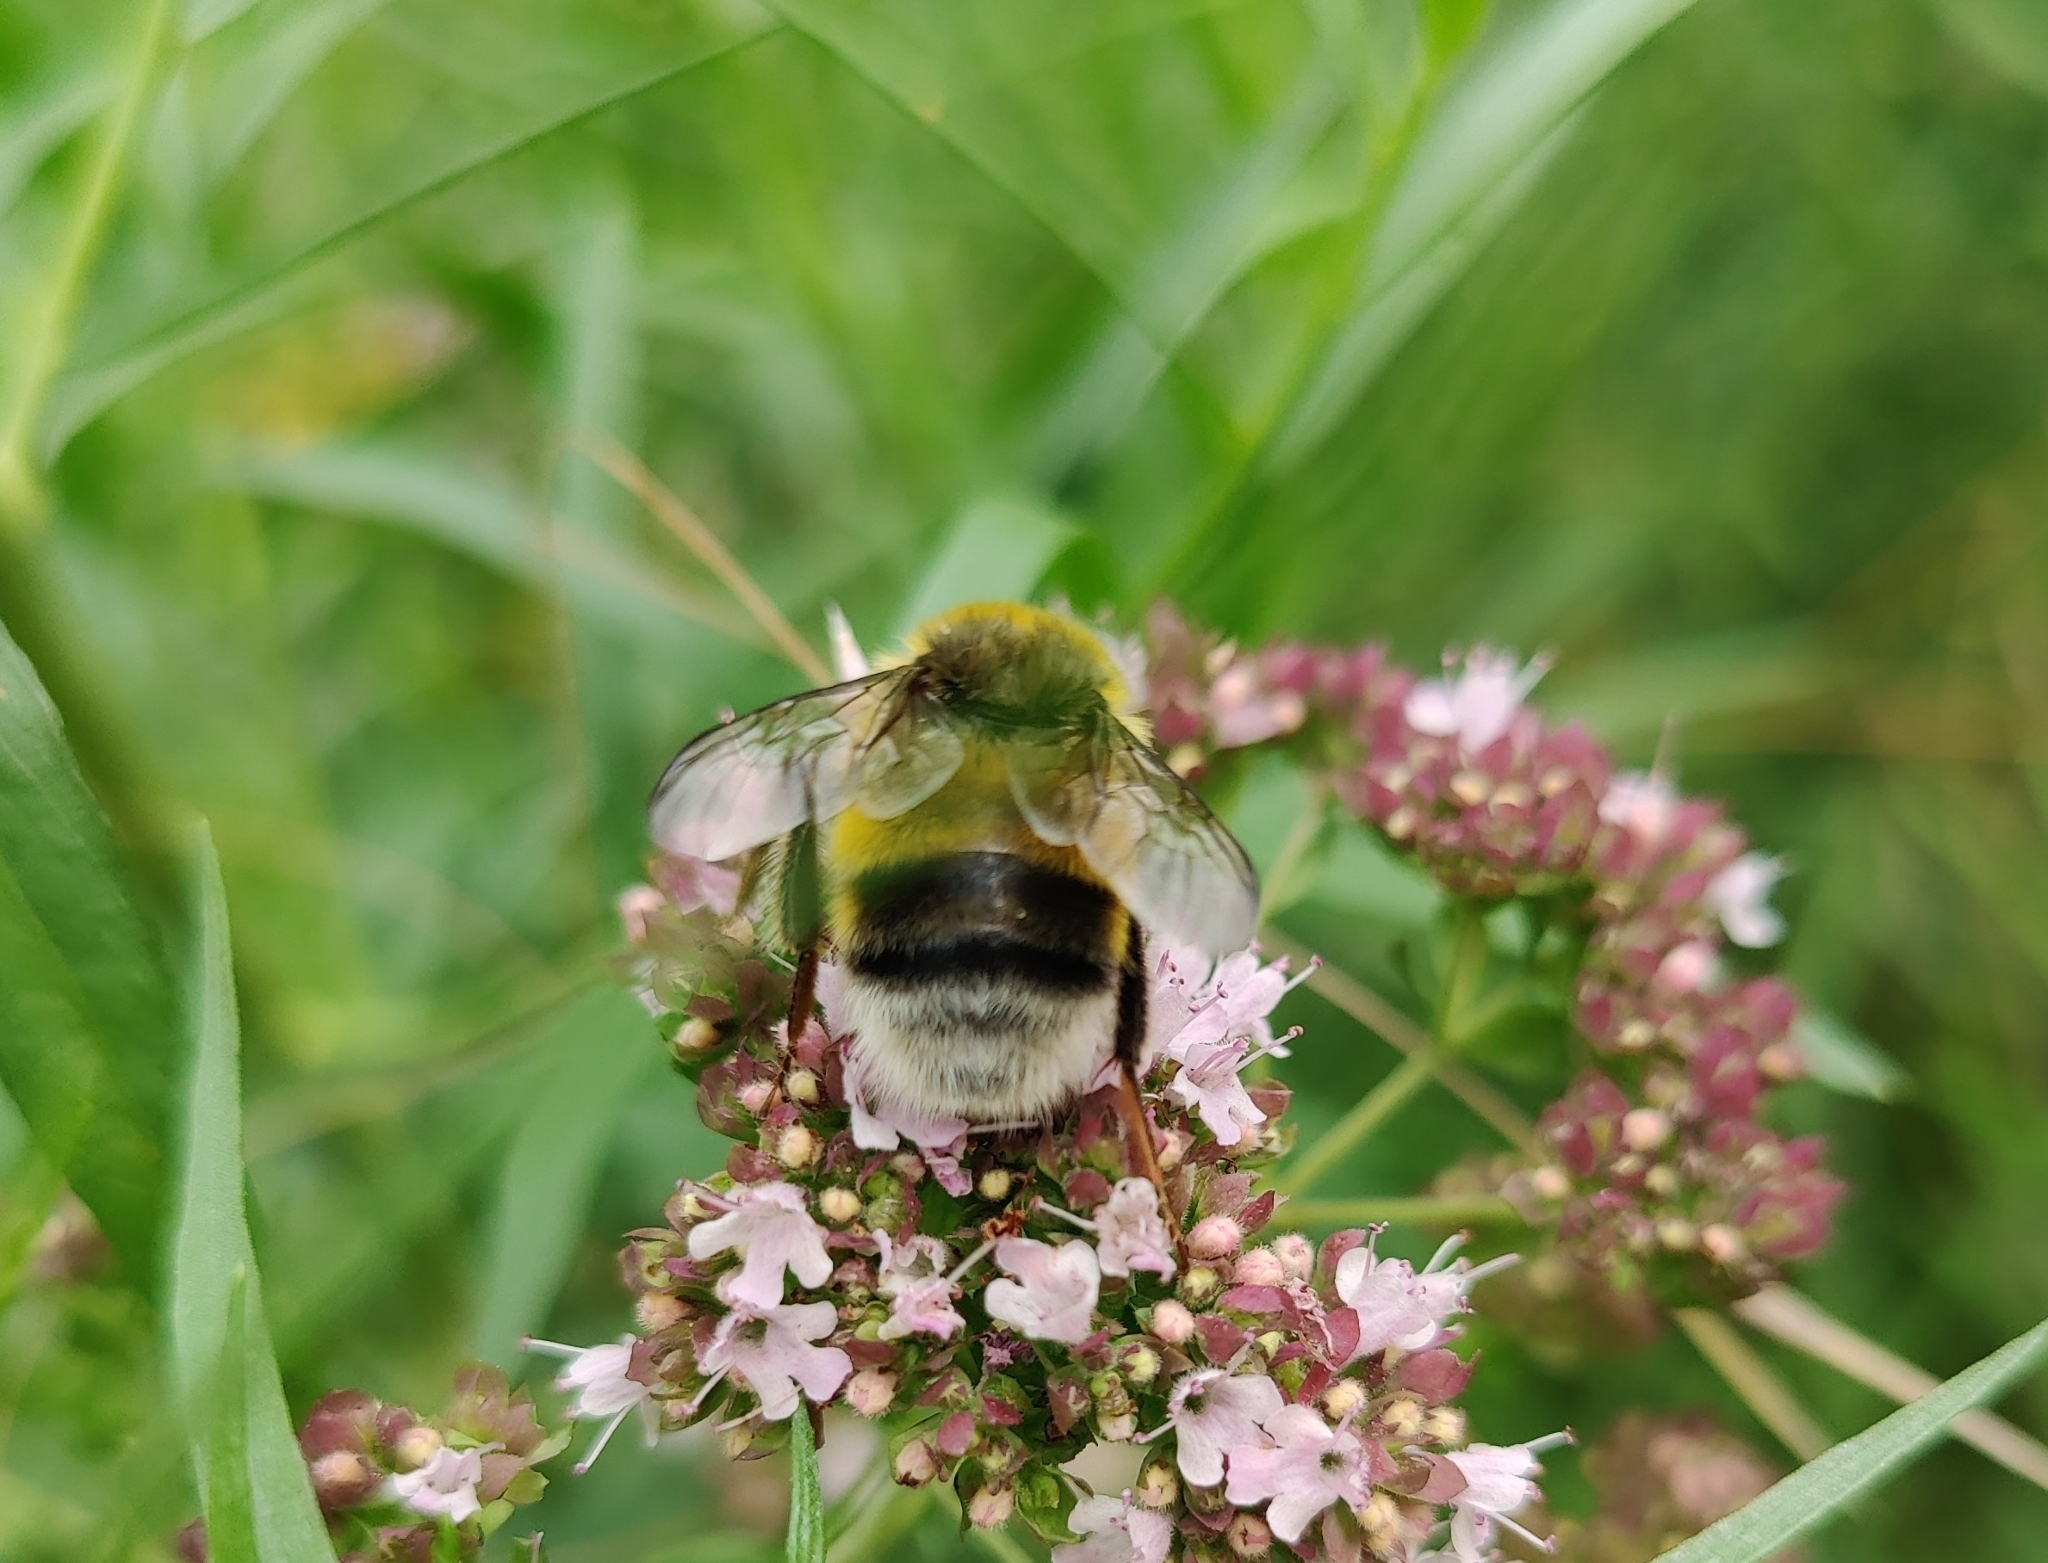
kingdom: Animalia
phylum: Arthropoda
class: Insecta
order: Hymenoptera
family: Apidae
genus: Bombus
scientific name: Bombus lucorum
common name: White-tailed bumblebee
